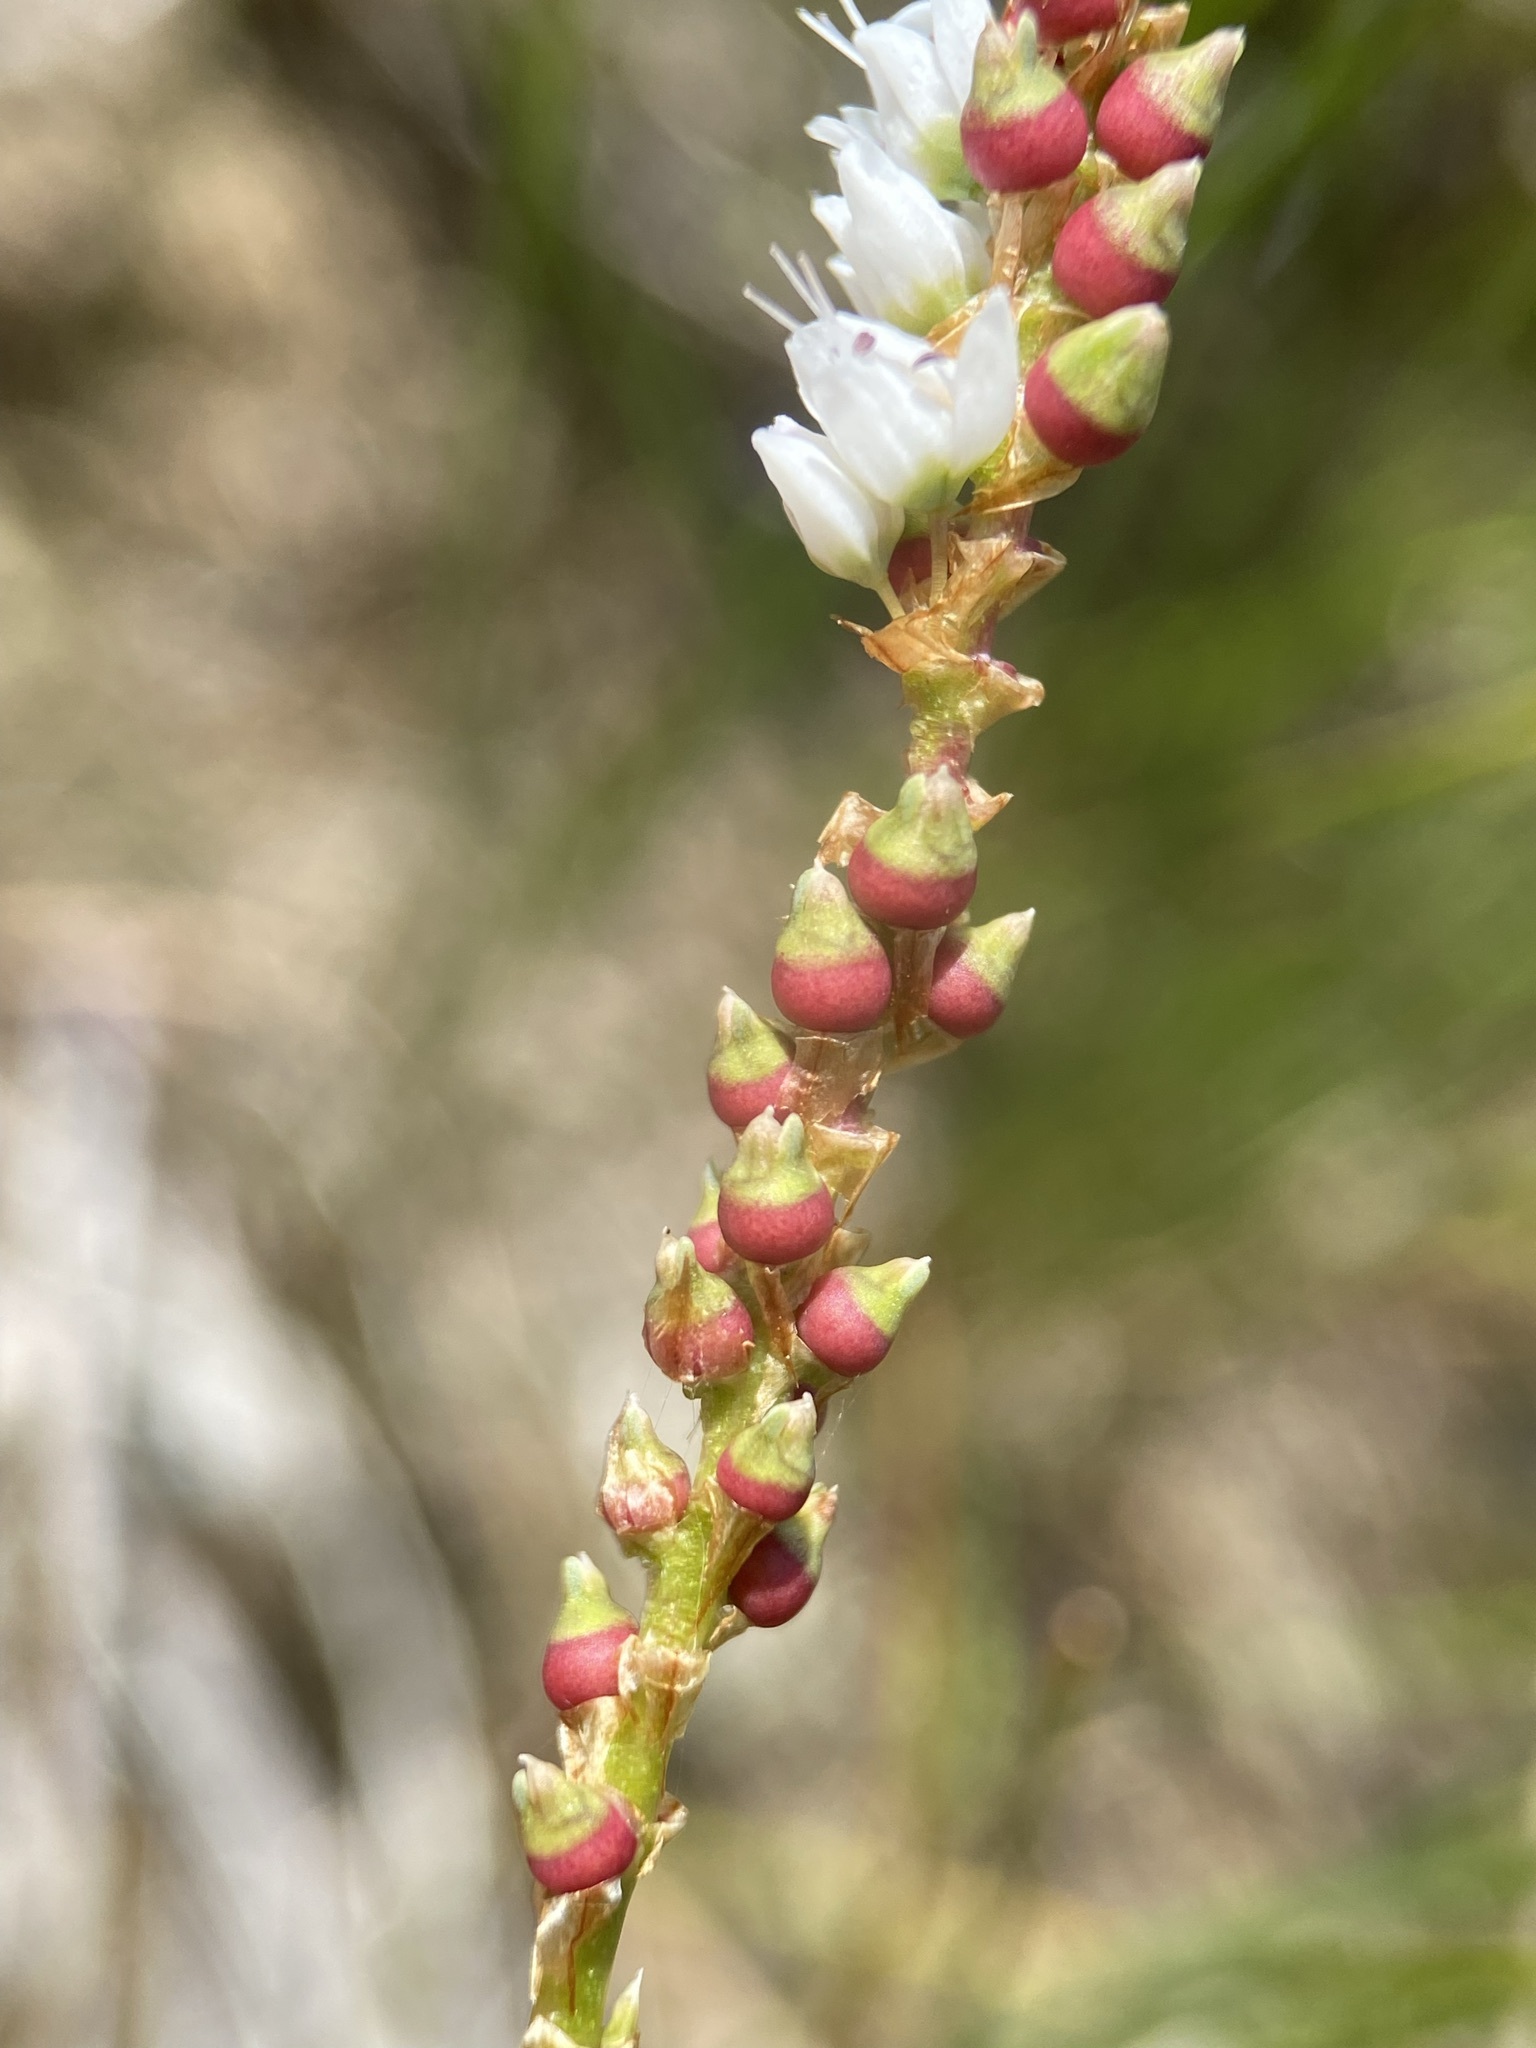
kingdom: Plantae
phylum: Tracheophyta
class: Magnoliopsida
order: Caryophyllales
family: Polygonaceae
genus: Bistorta
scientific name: Bistorta vivipara
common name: Alpine bistort
